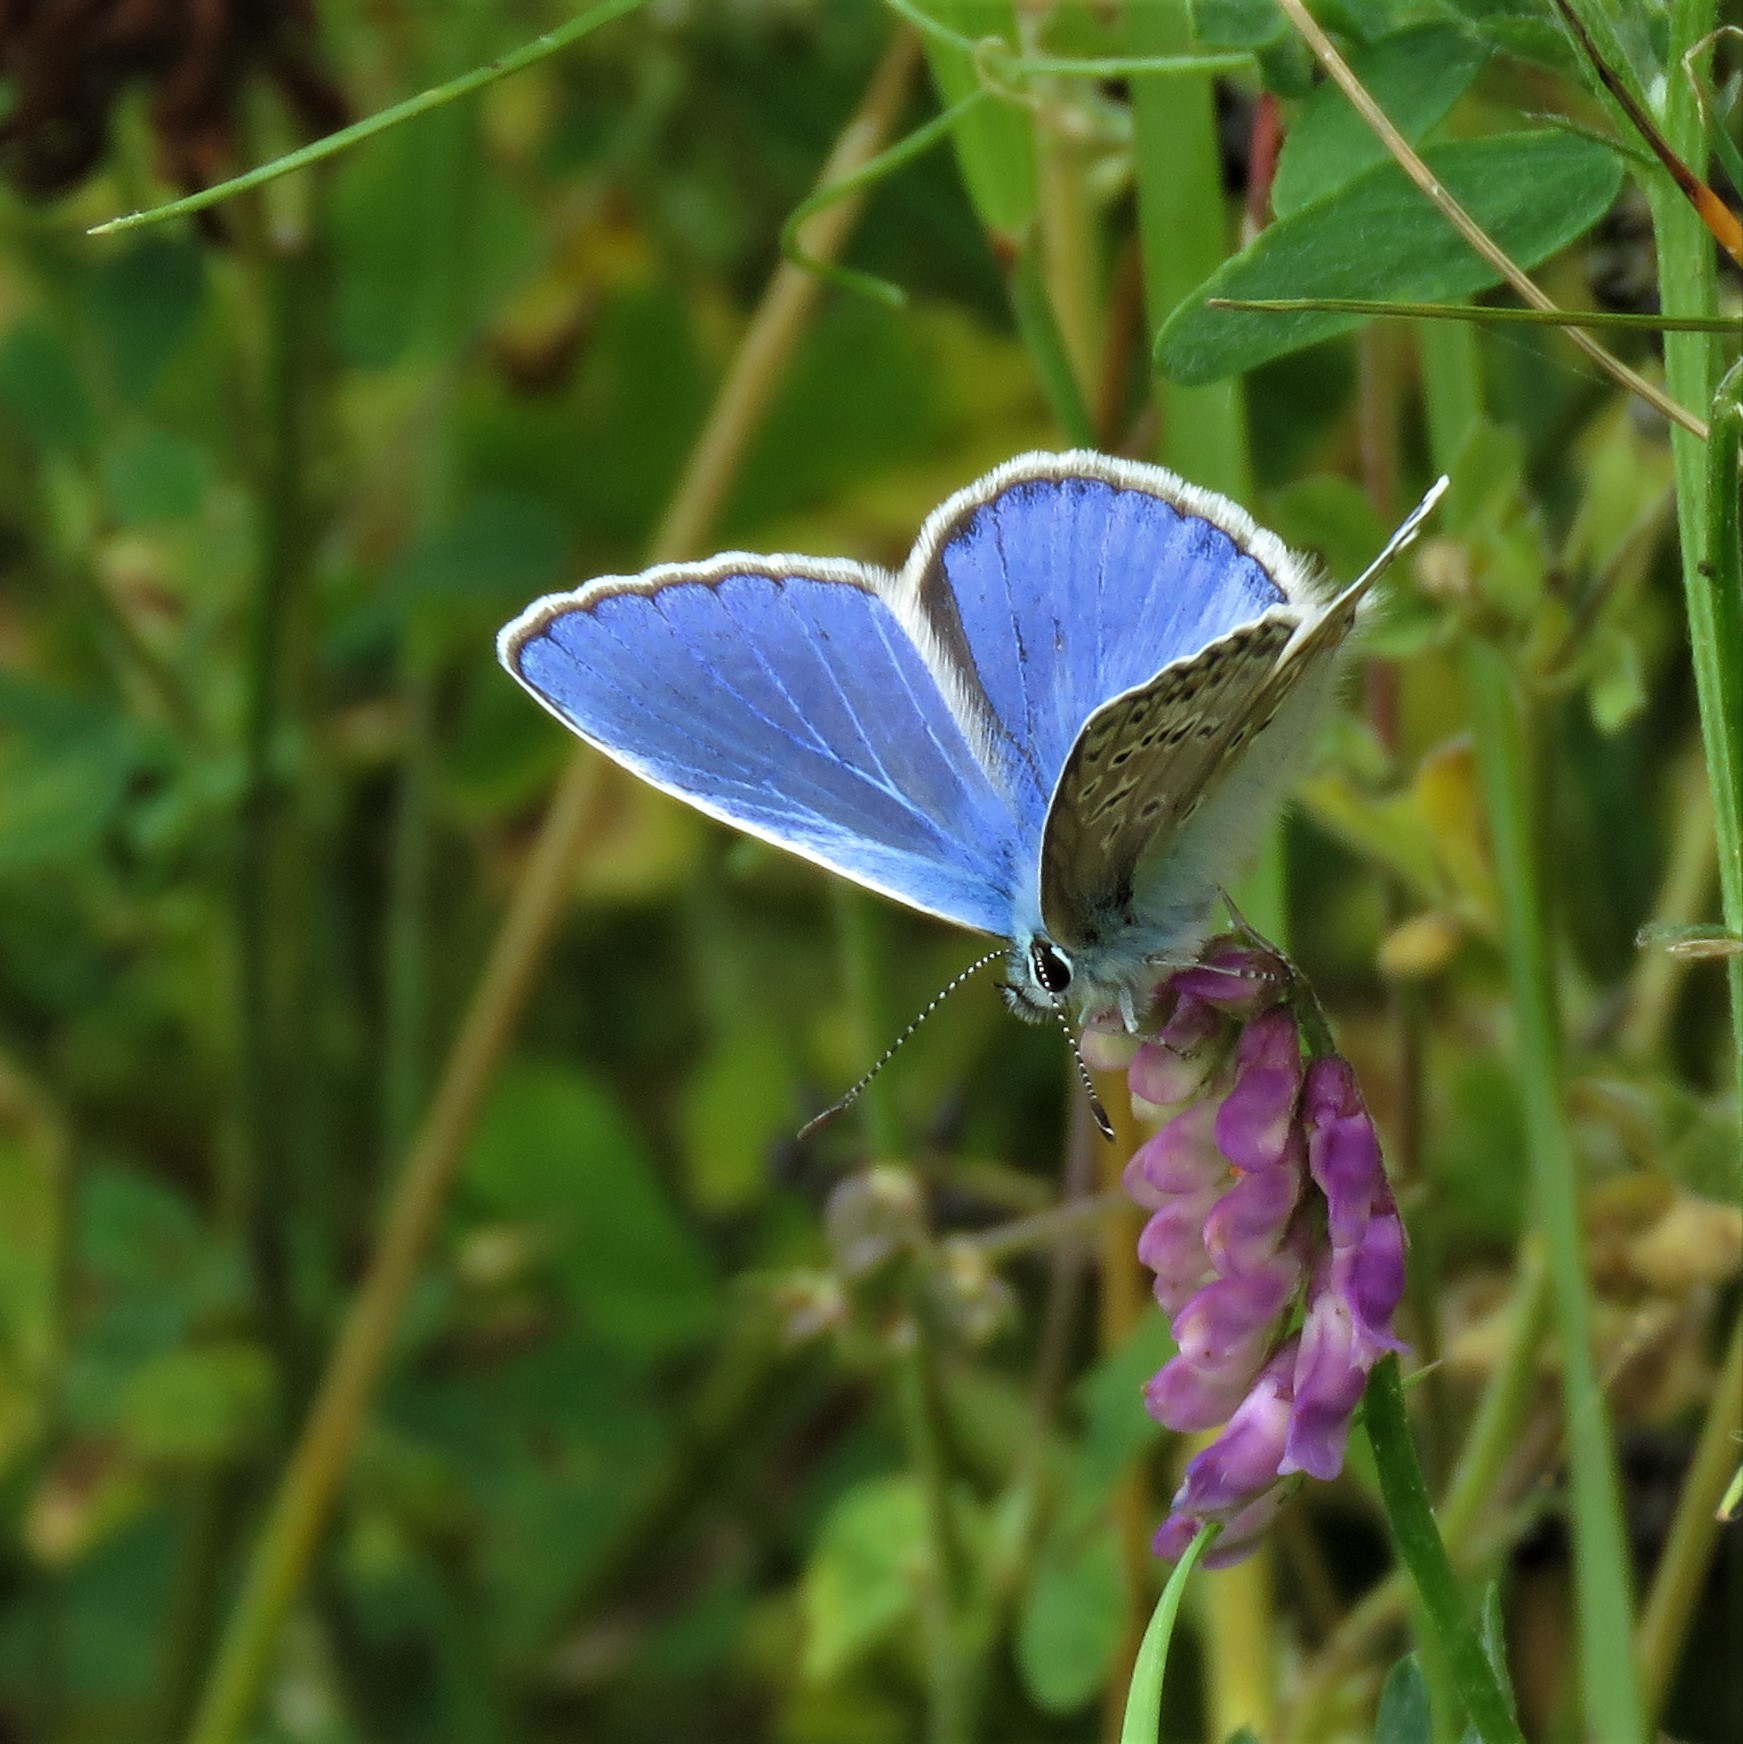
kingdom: Animalia
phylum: Arthropoda
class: Insecta
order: Lepidoptera
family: Lycaenidae
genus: Polyommatus
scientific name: Polyommatus icarus
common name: Common blue
